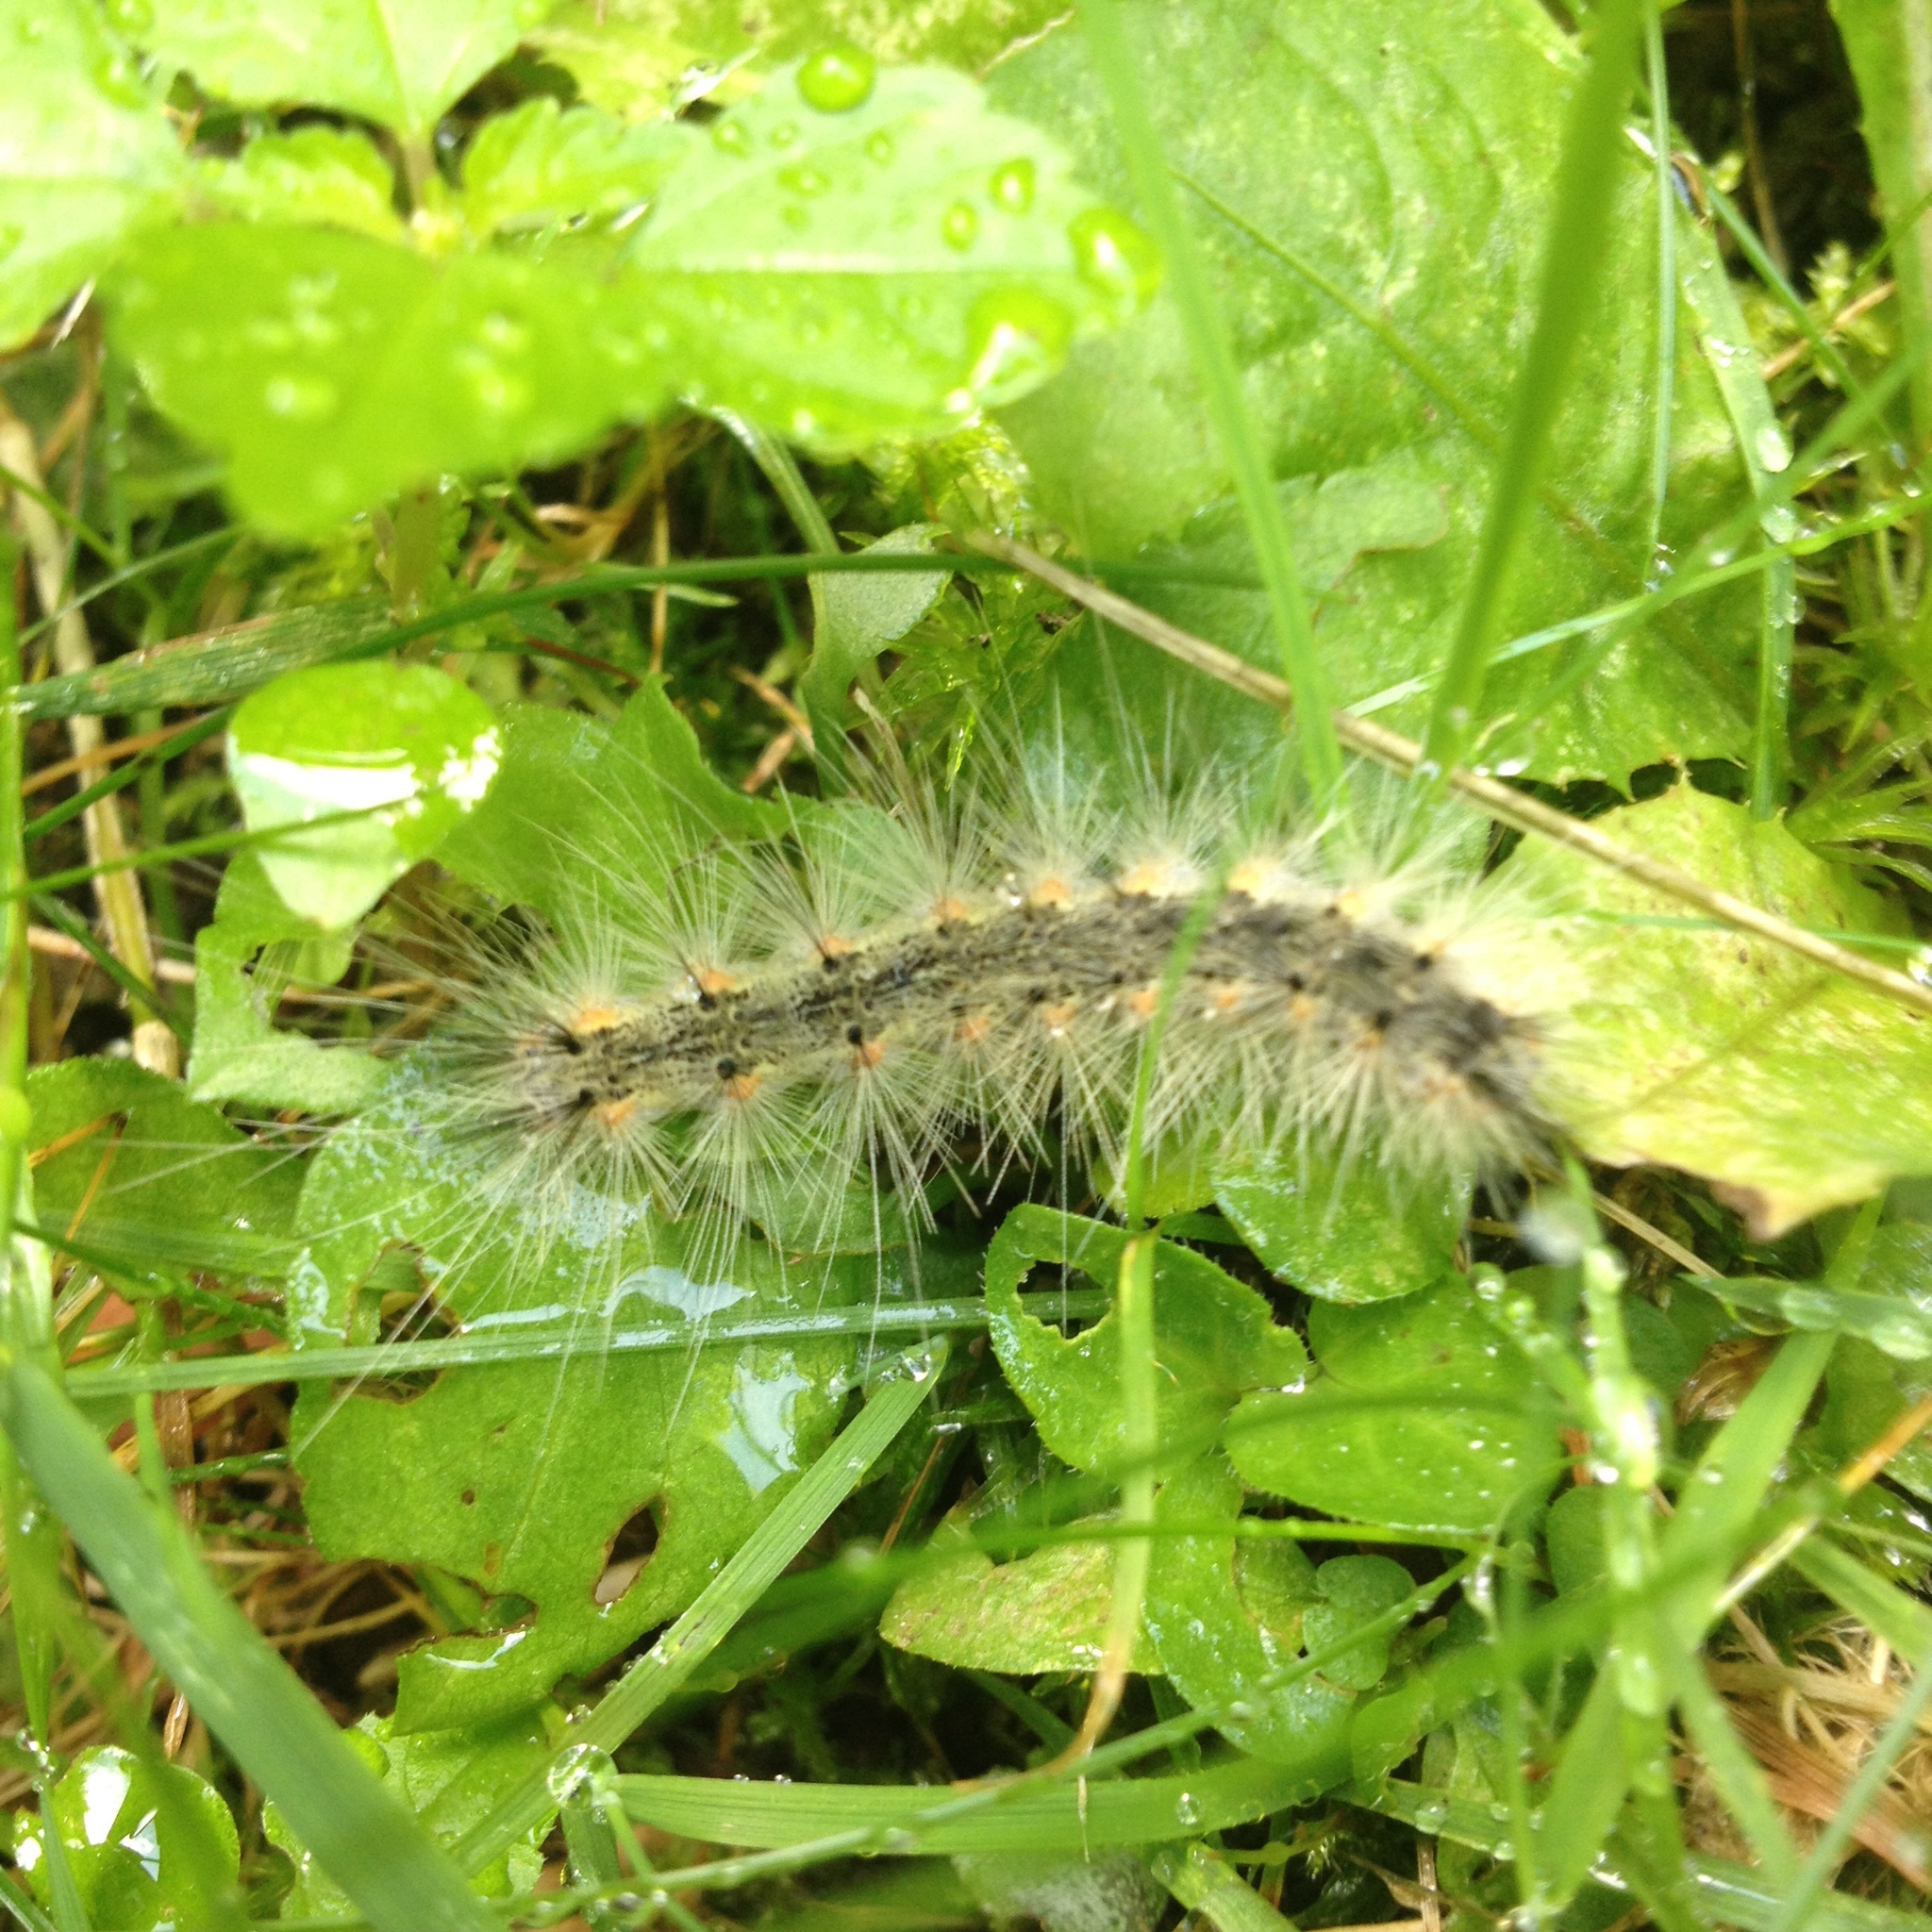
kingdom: Animalia
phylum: Arthropoda
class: Insecta
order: Lepidoptera
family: Erebidae
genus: Hyphantria
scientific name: Hyphantria cunea
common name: American white moth
